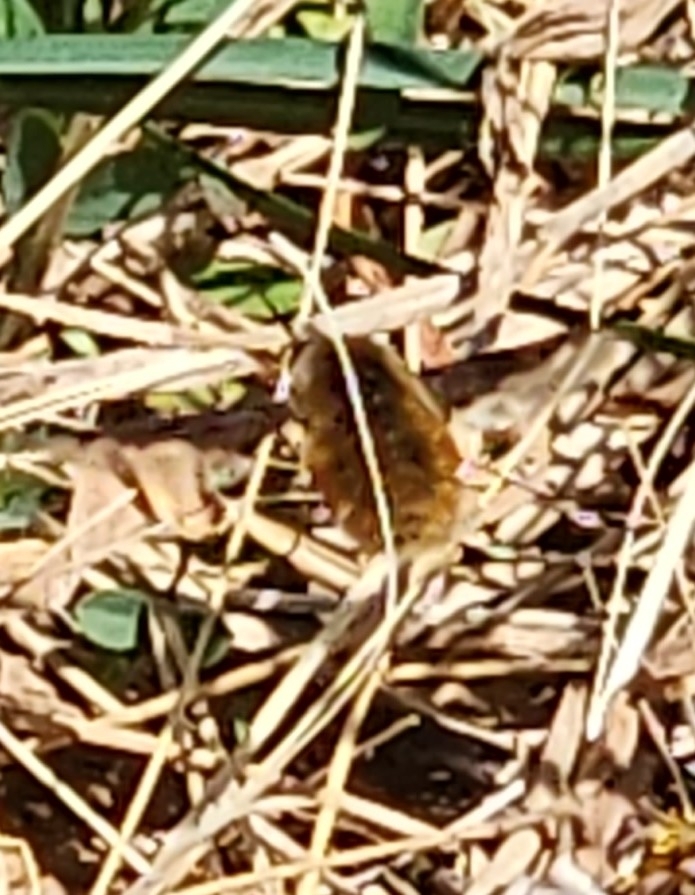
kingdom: Animalia
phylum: Arthropoda
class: Insecta
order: Diptera
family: Bombyliidae
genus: Bombylius
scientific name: Bombylius major
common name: Bee fly
